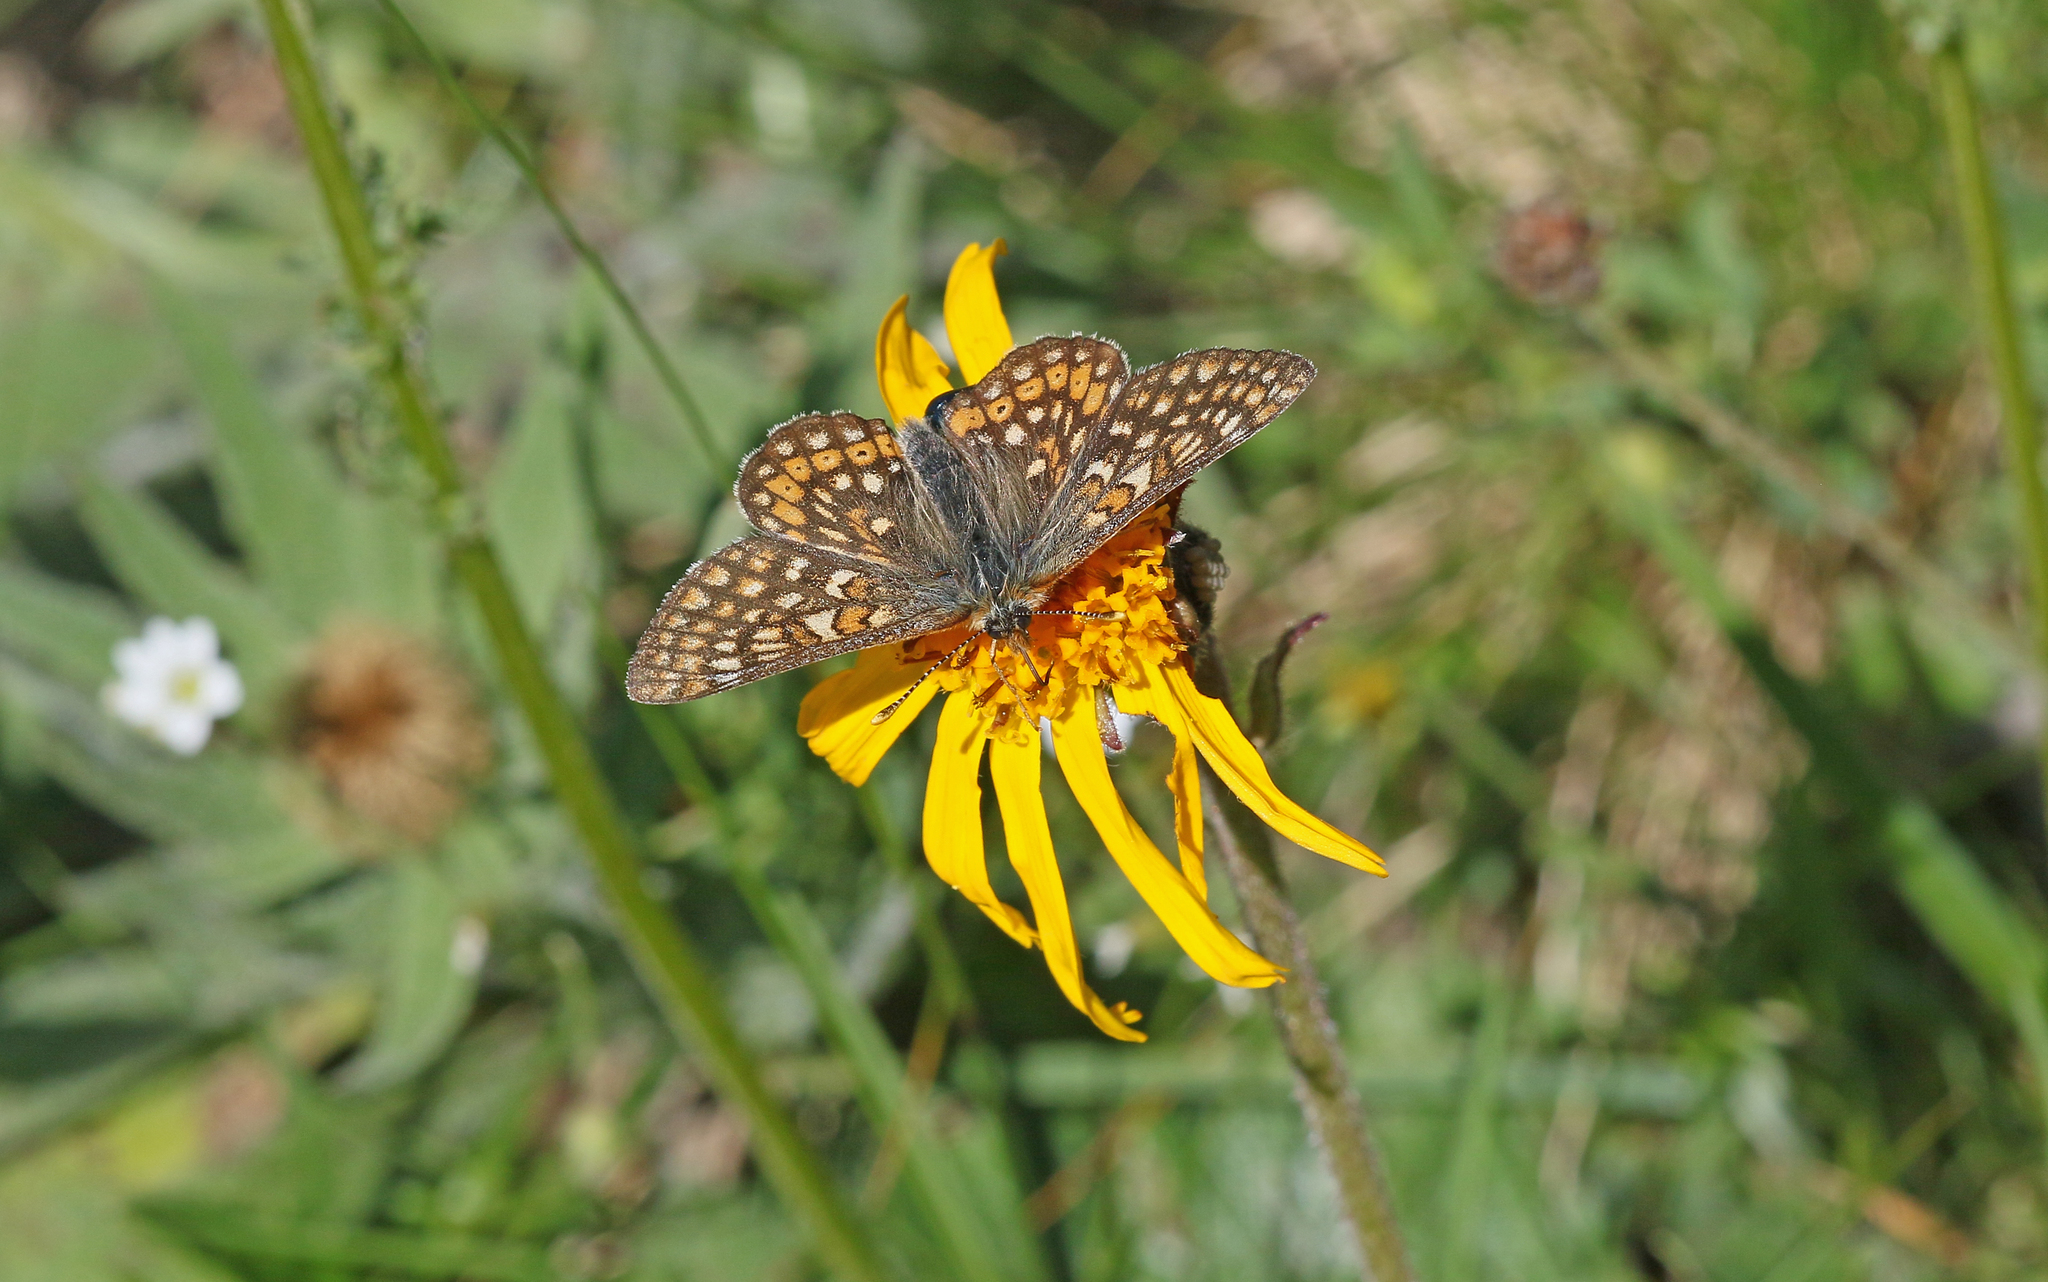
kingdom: Animalia
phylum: Arthropoda
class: Insecta
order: Lepidoptera
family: Nymphalidae
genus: Euphydryas
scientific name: Euphydryas aurinia
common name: Marsh fritillary
